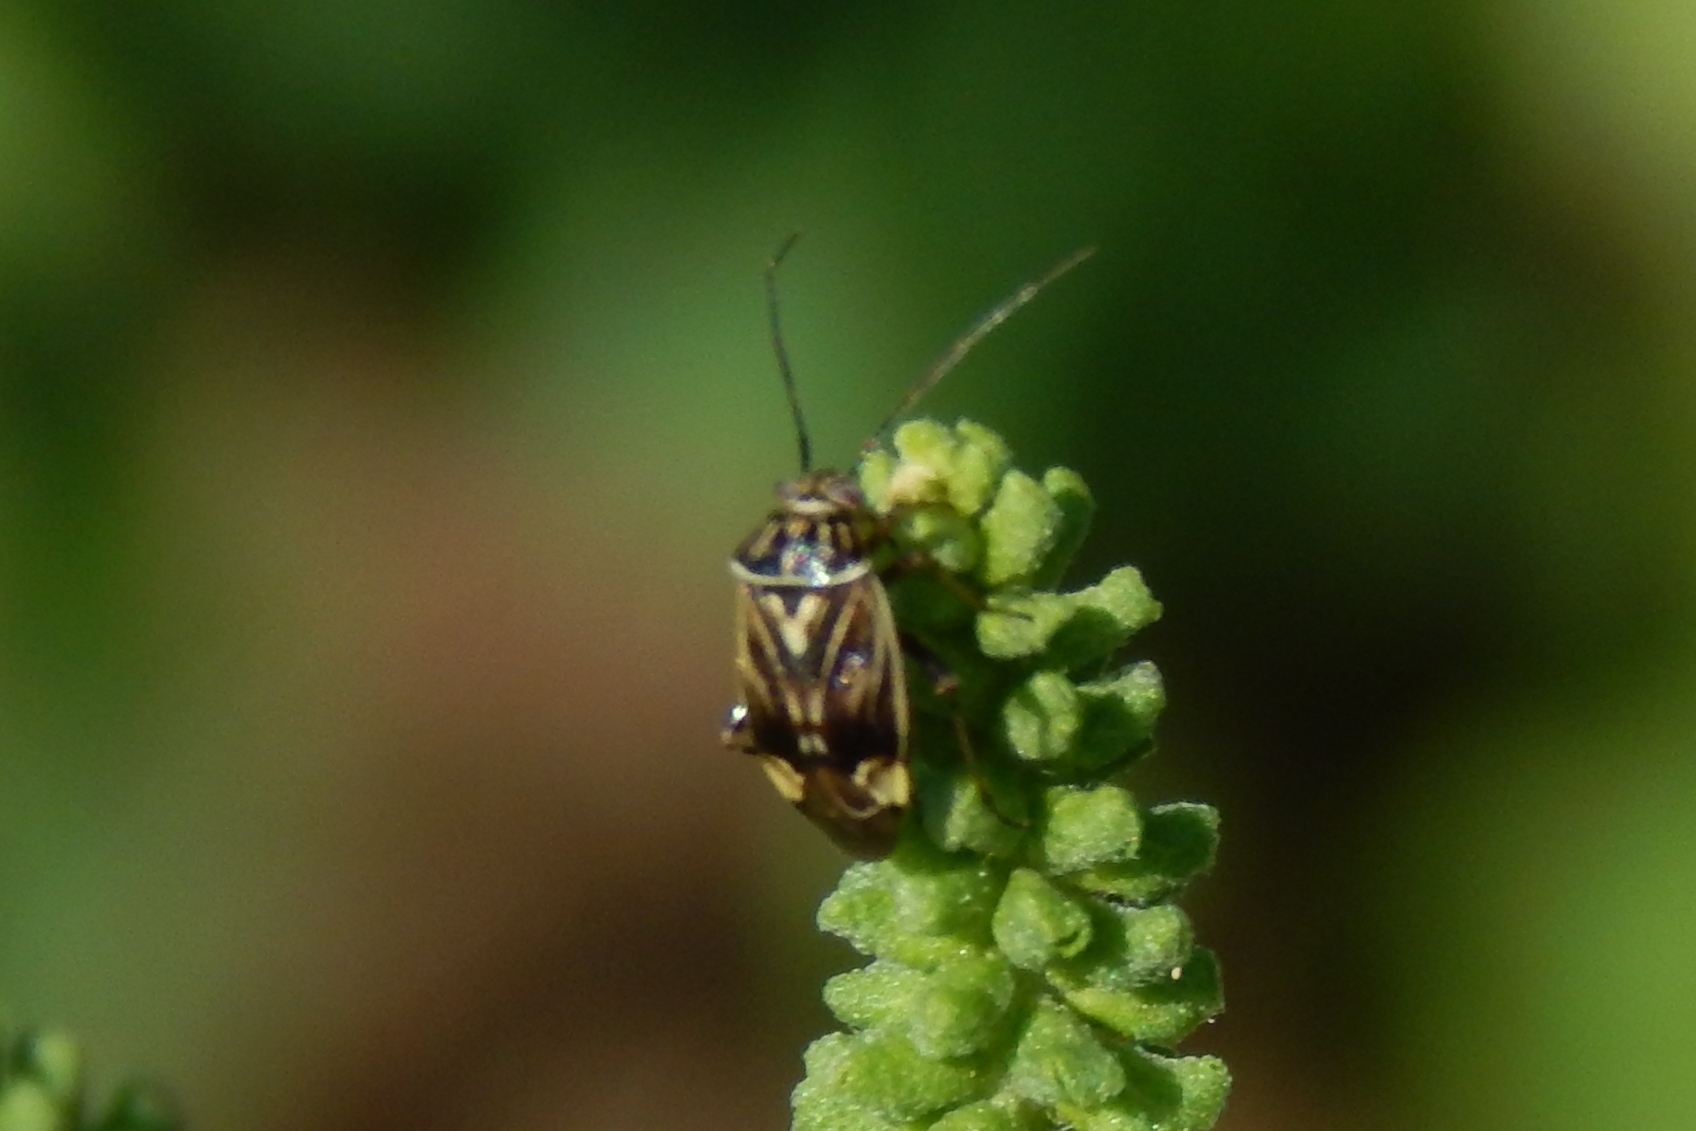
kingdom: Animalia
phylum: Arthropoda
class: Insecta
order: Hemiptera
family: Miridae
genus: Lygus
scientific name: Lygus lineolaris
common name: North american tarnished plant bug
